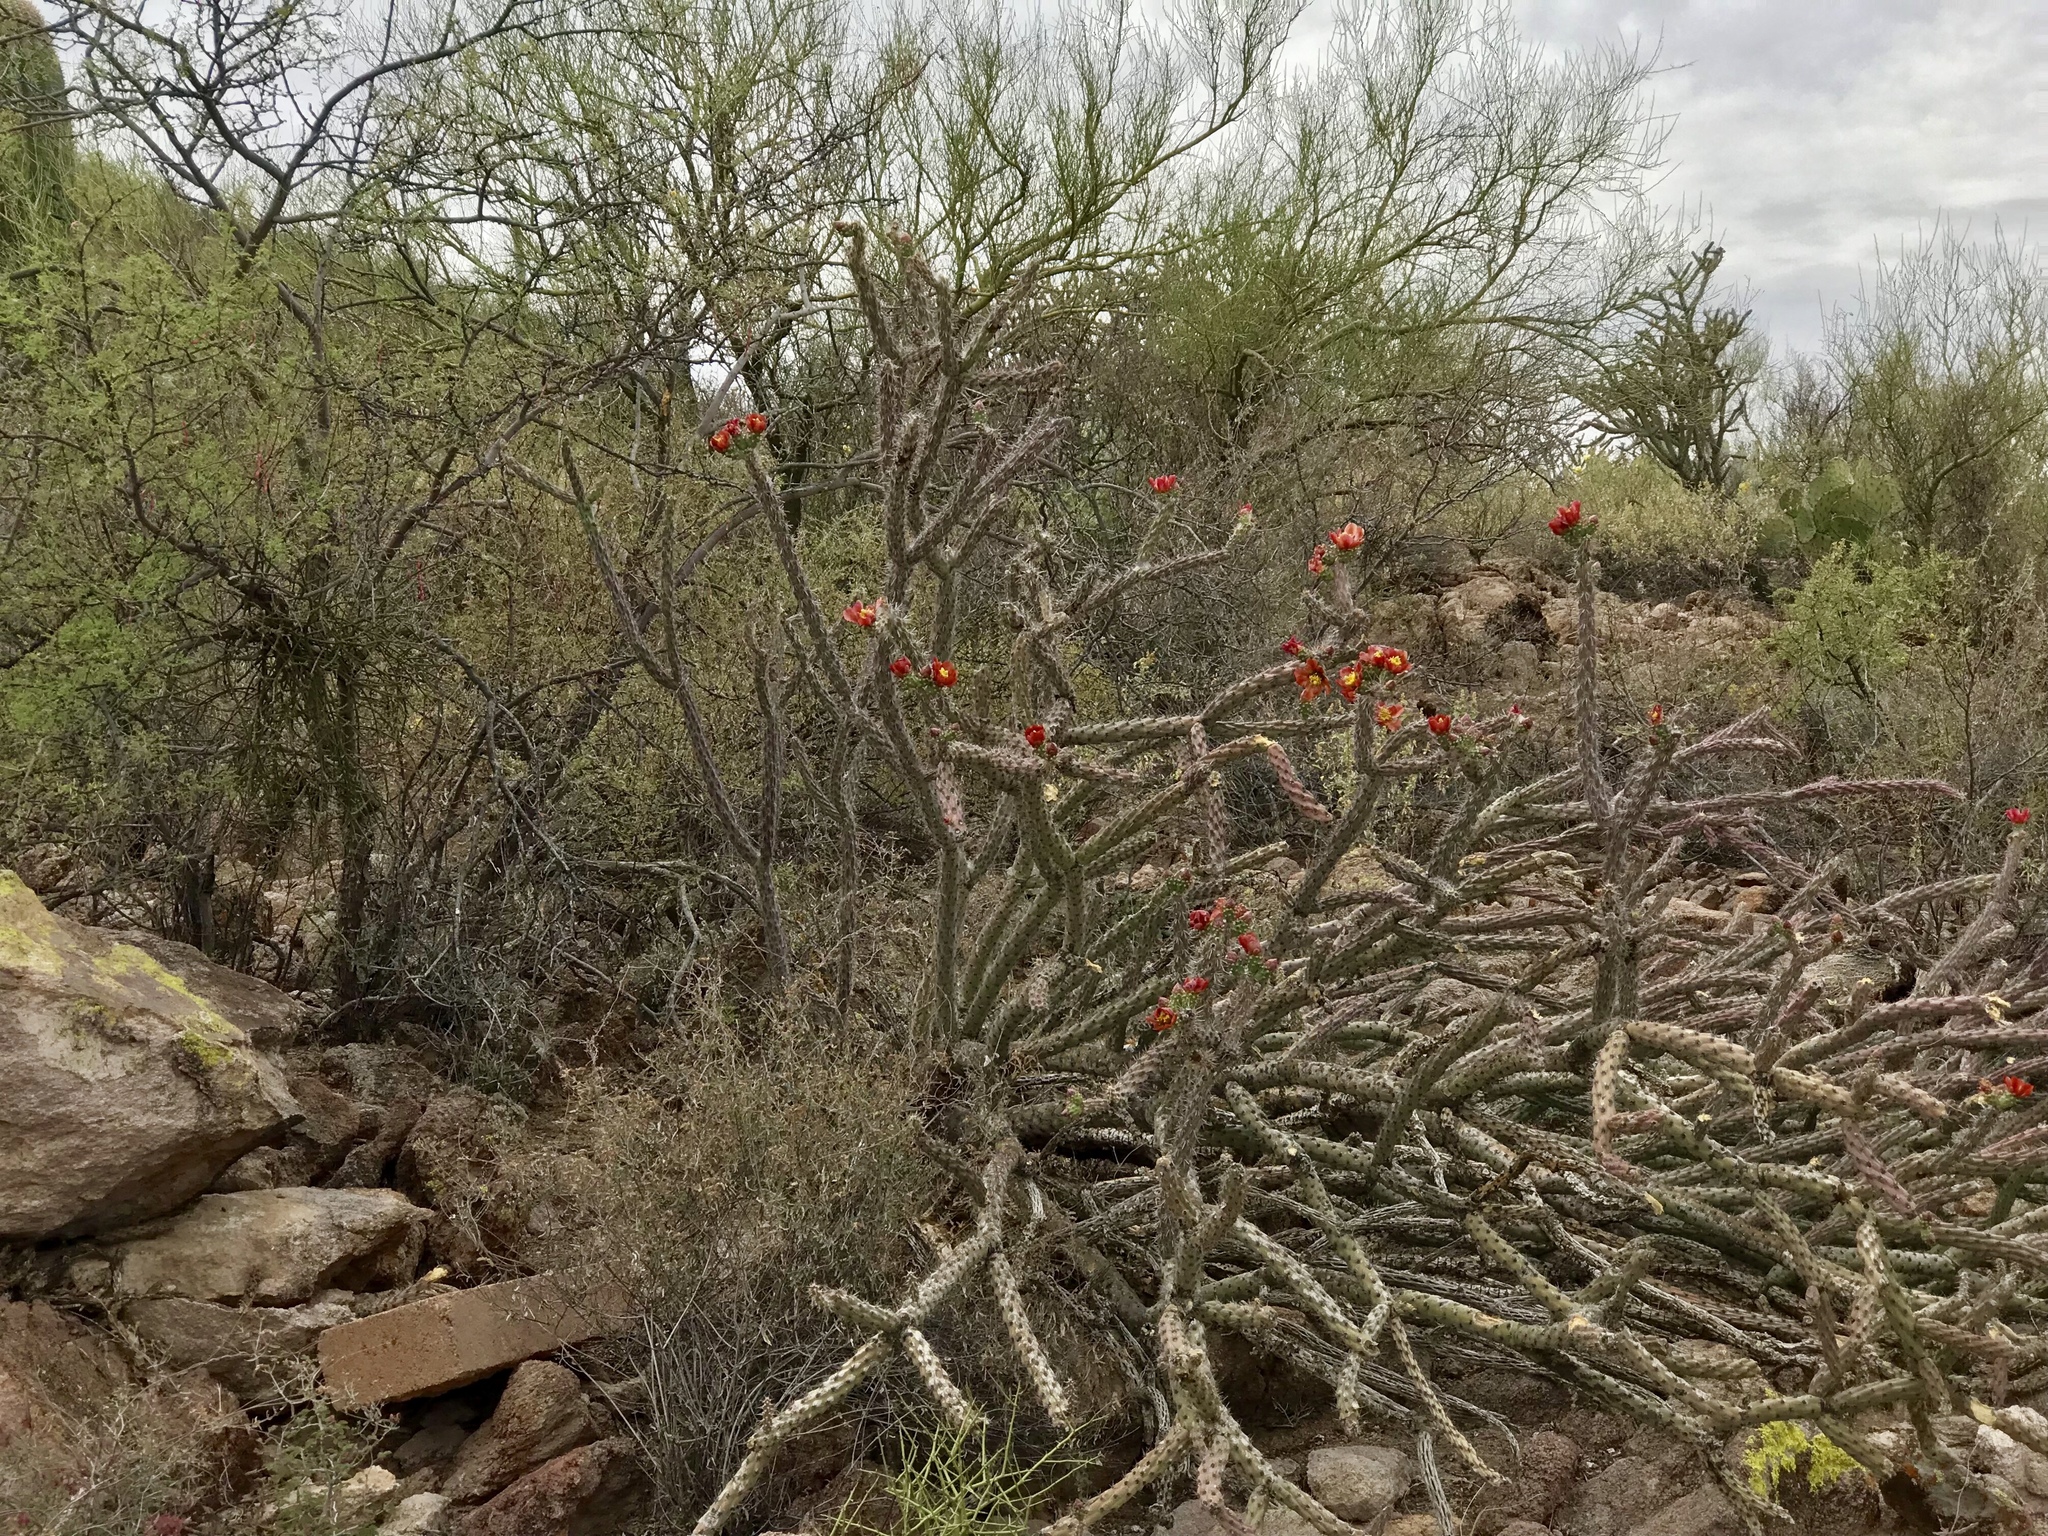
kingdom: Plantae
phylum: Tracheophyta
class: Magnoliopsida
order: Caryophyllales
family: Cactaceae
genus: Cylindropuntia
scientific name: Cylindropuntia thurberi
